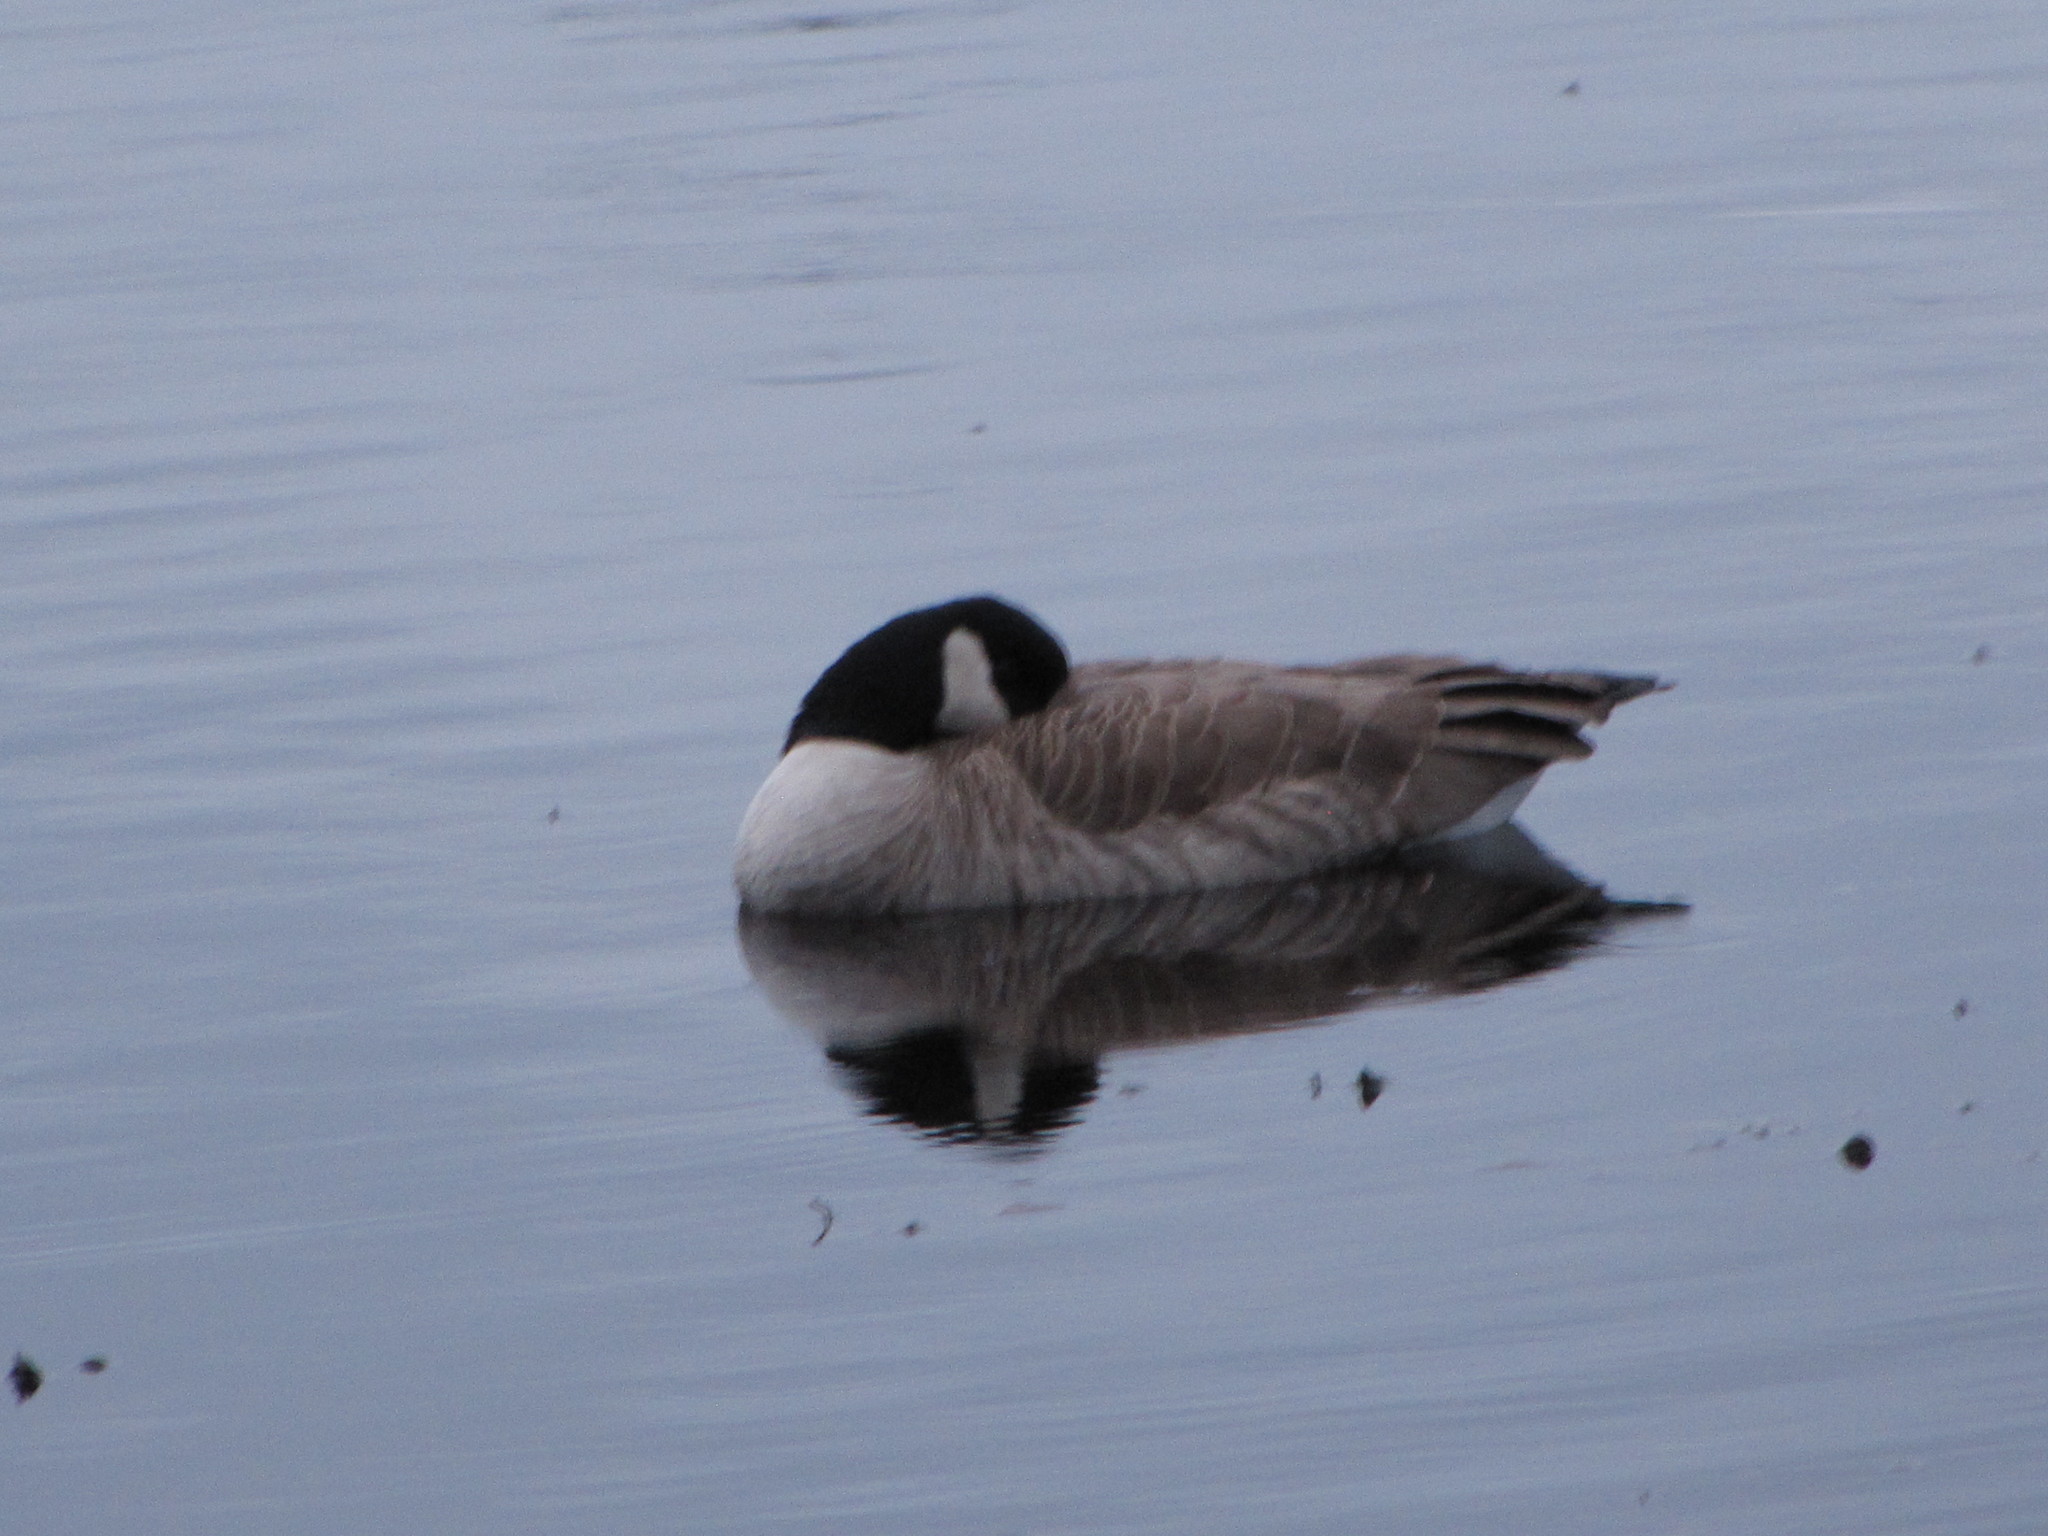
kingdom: Animalia
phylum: Chordata
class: Aves
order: Anseriformes
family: Anatidae
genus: Branta
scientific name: Branta canadensis
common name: Canada goose
